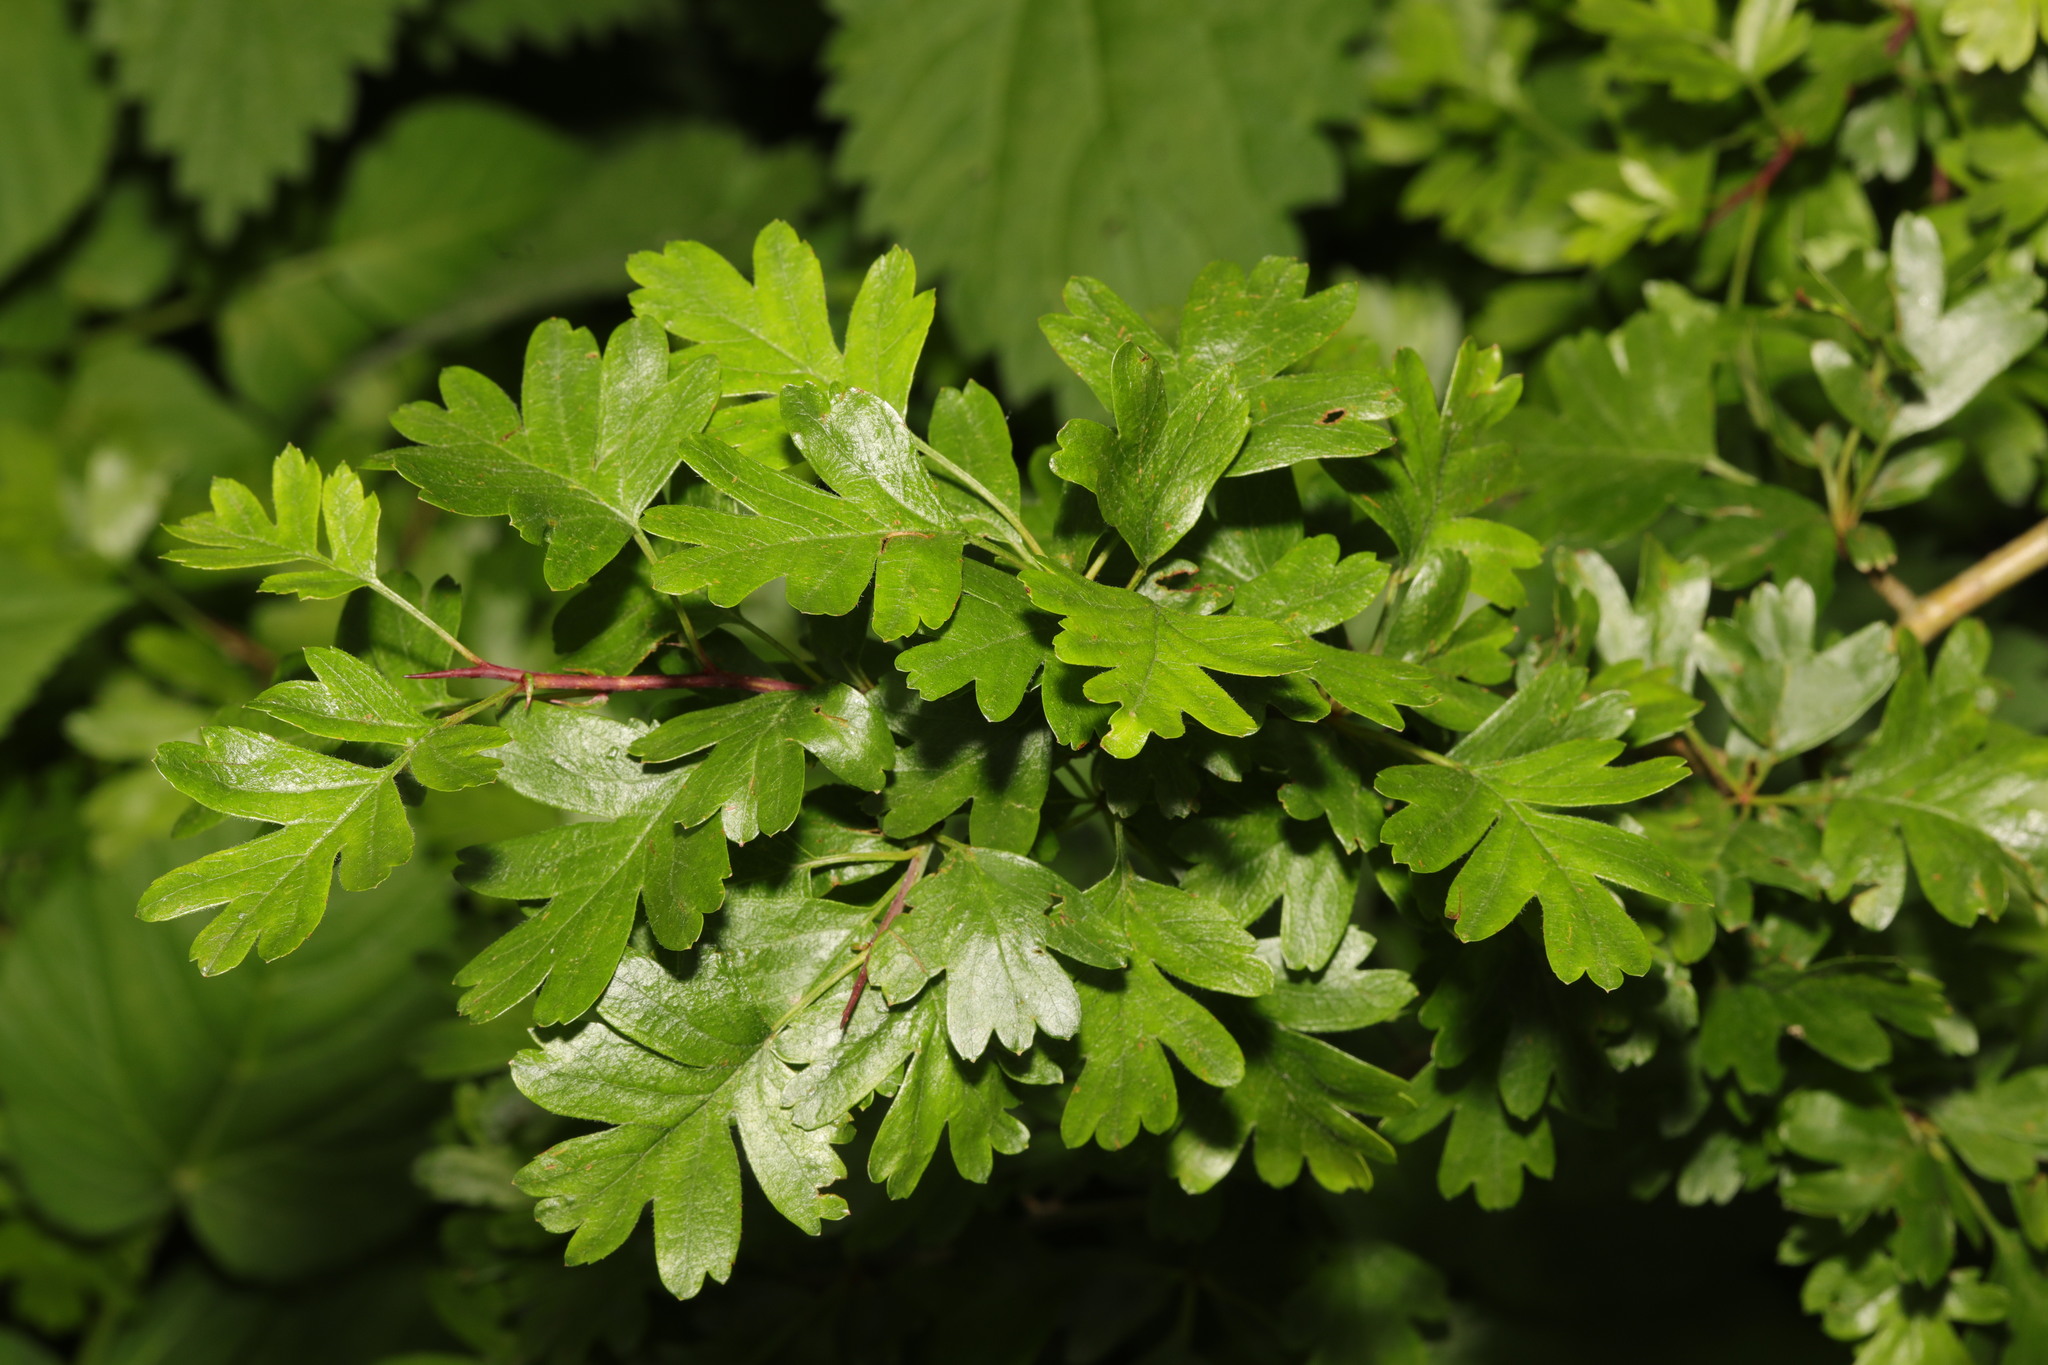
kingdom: Plantae
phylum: Tracheophyta
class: Magnoliopsida
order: Rosales
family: Rosaceae
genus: Crataegus
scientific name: Crataegus monogyna
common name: Hawthorn
